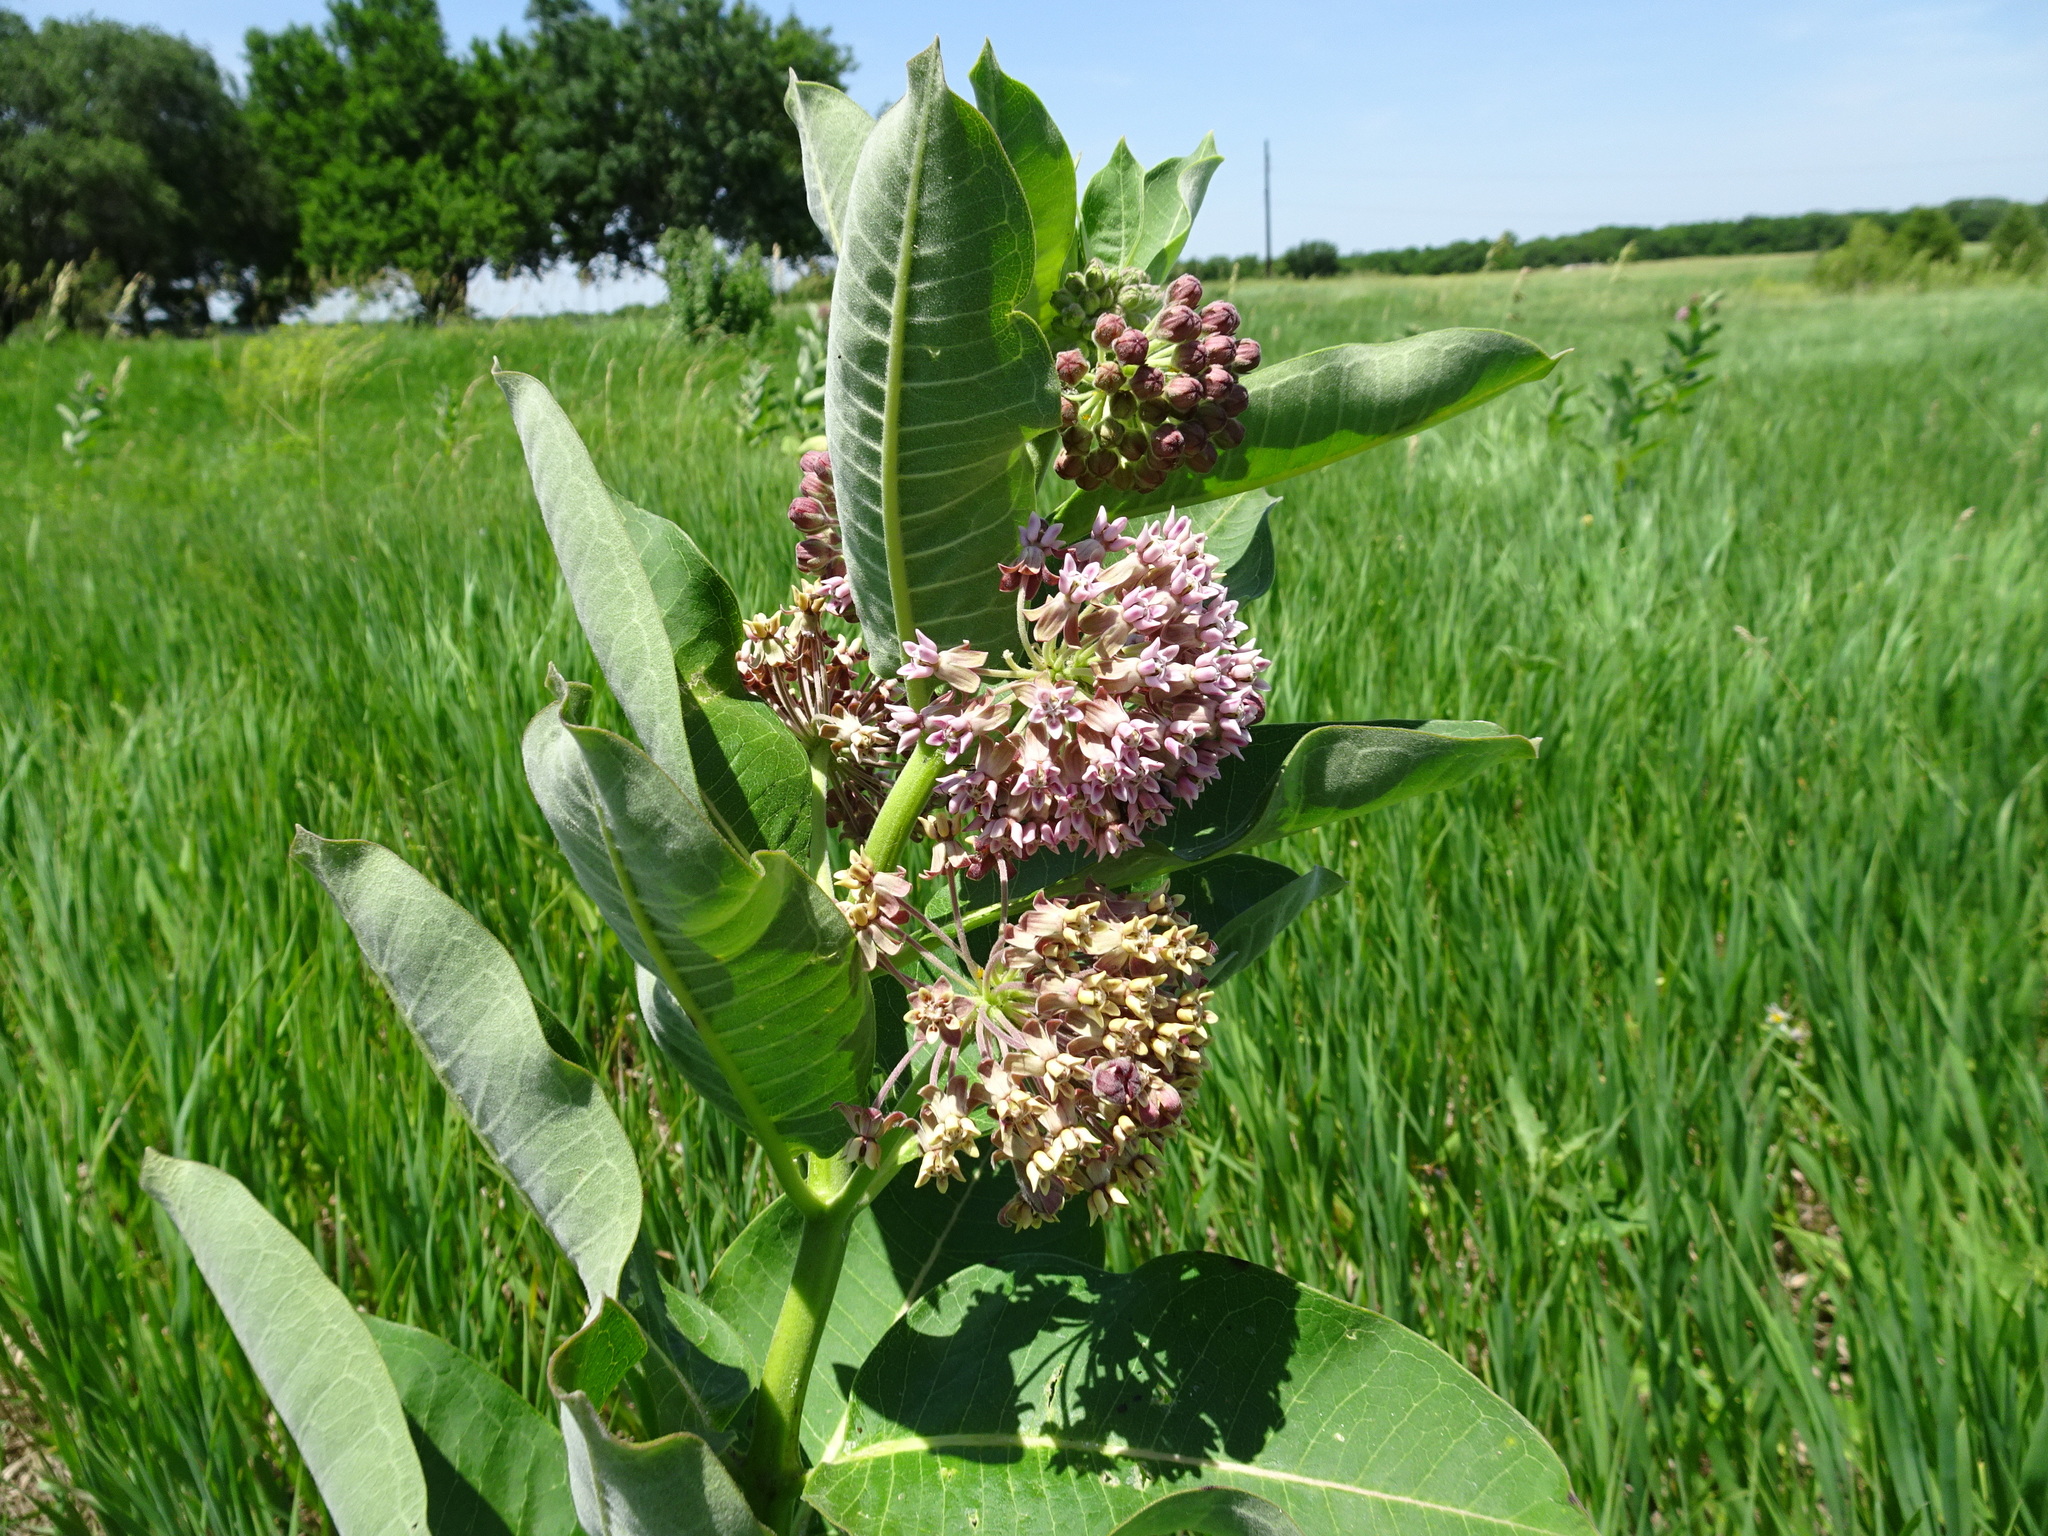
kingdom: Plantae
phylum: Tracheophyta
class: Magnoliopsida
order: Gentianales
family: Apocynaceae
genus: Asclepias
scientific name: Asclepias syriaca
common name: Common milkweed
